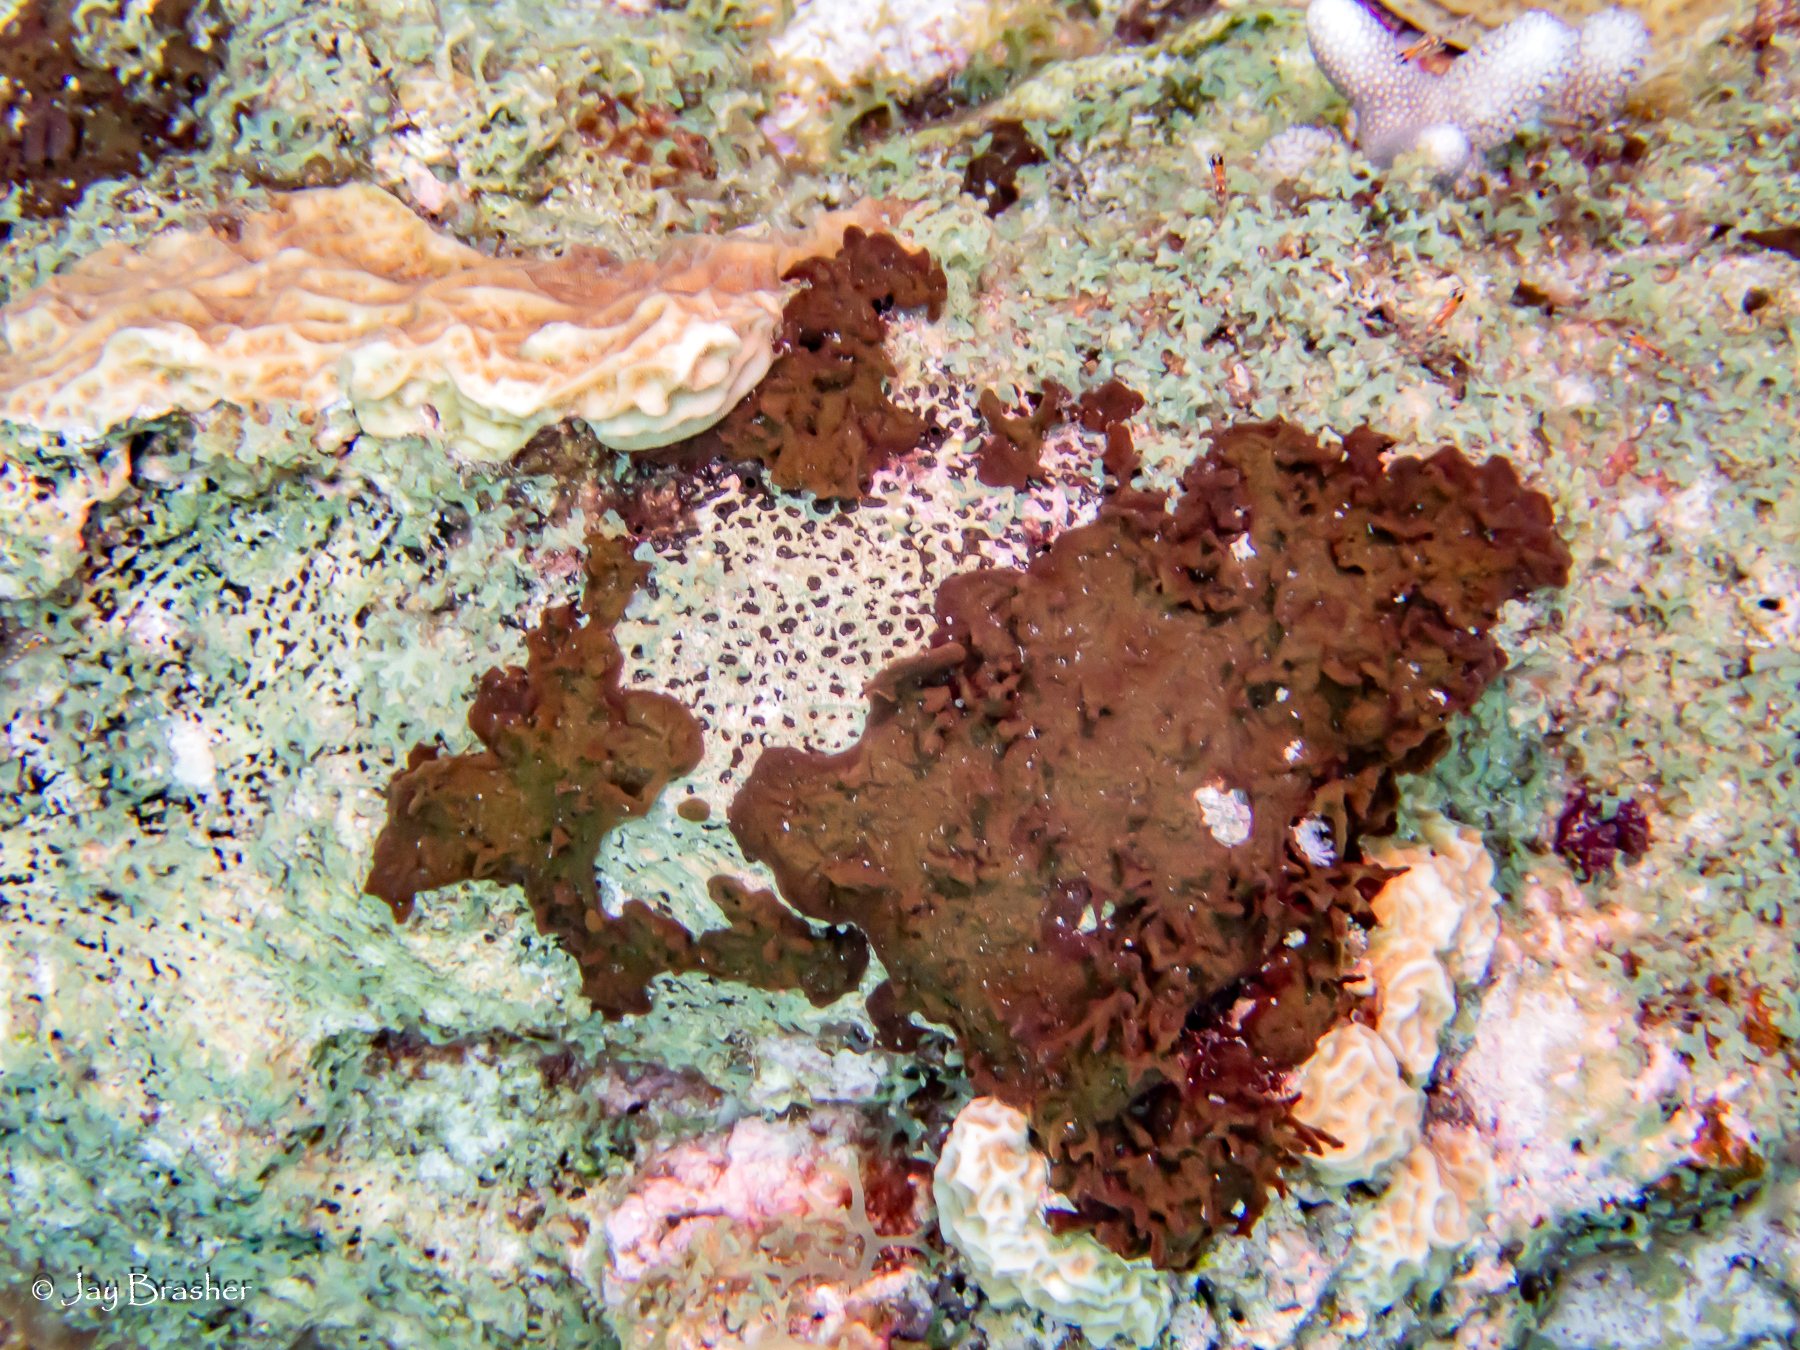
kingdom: Animalia
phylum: Porifera
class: Demospongiae
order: Bubarida
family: Dictyonellidae
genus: Dictyonella
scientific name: Dictyonella funicularis
